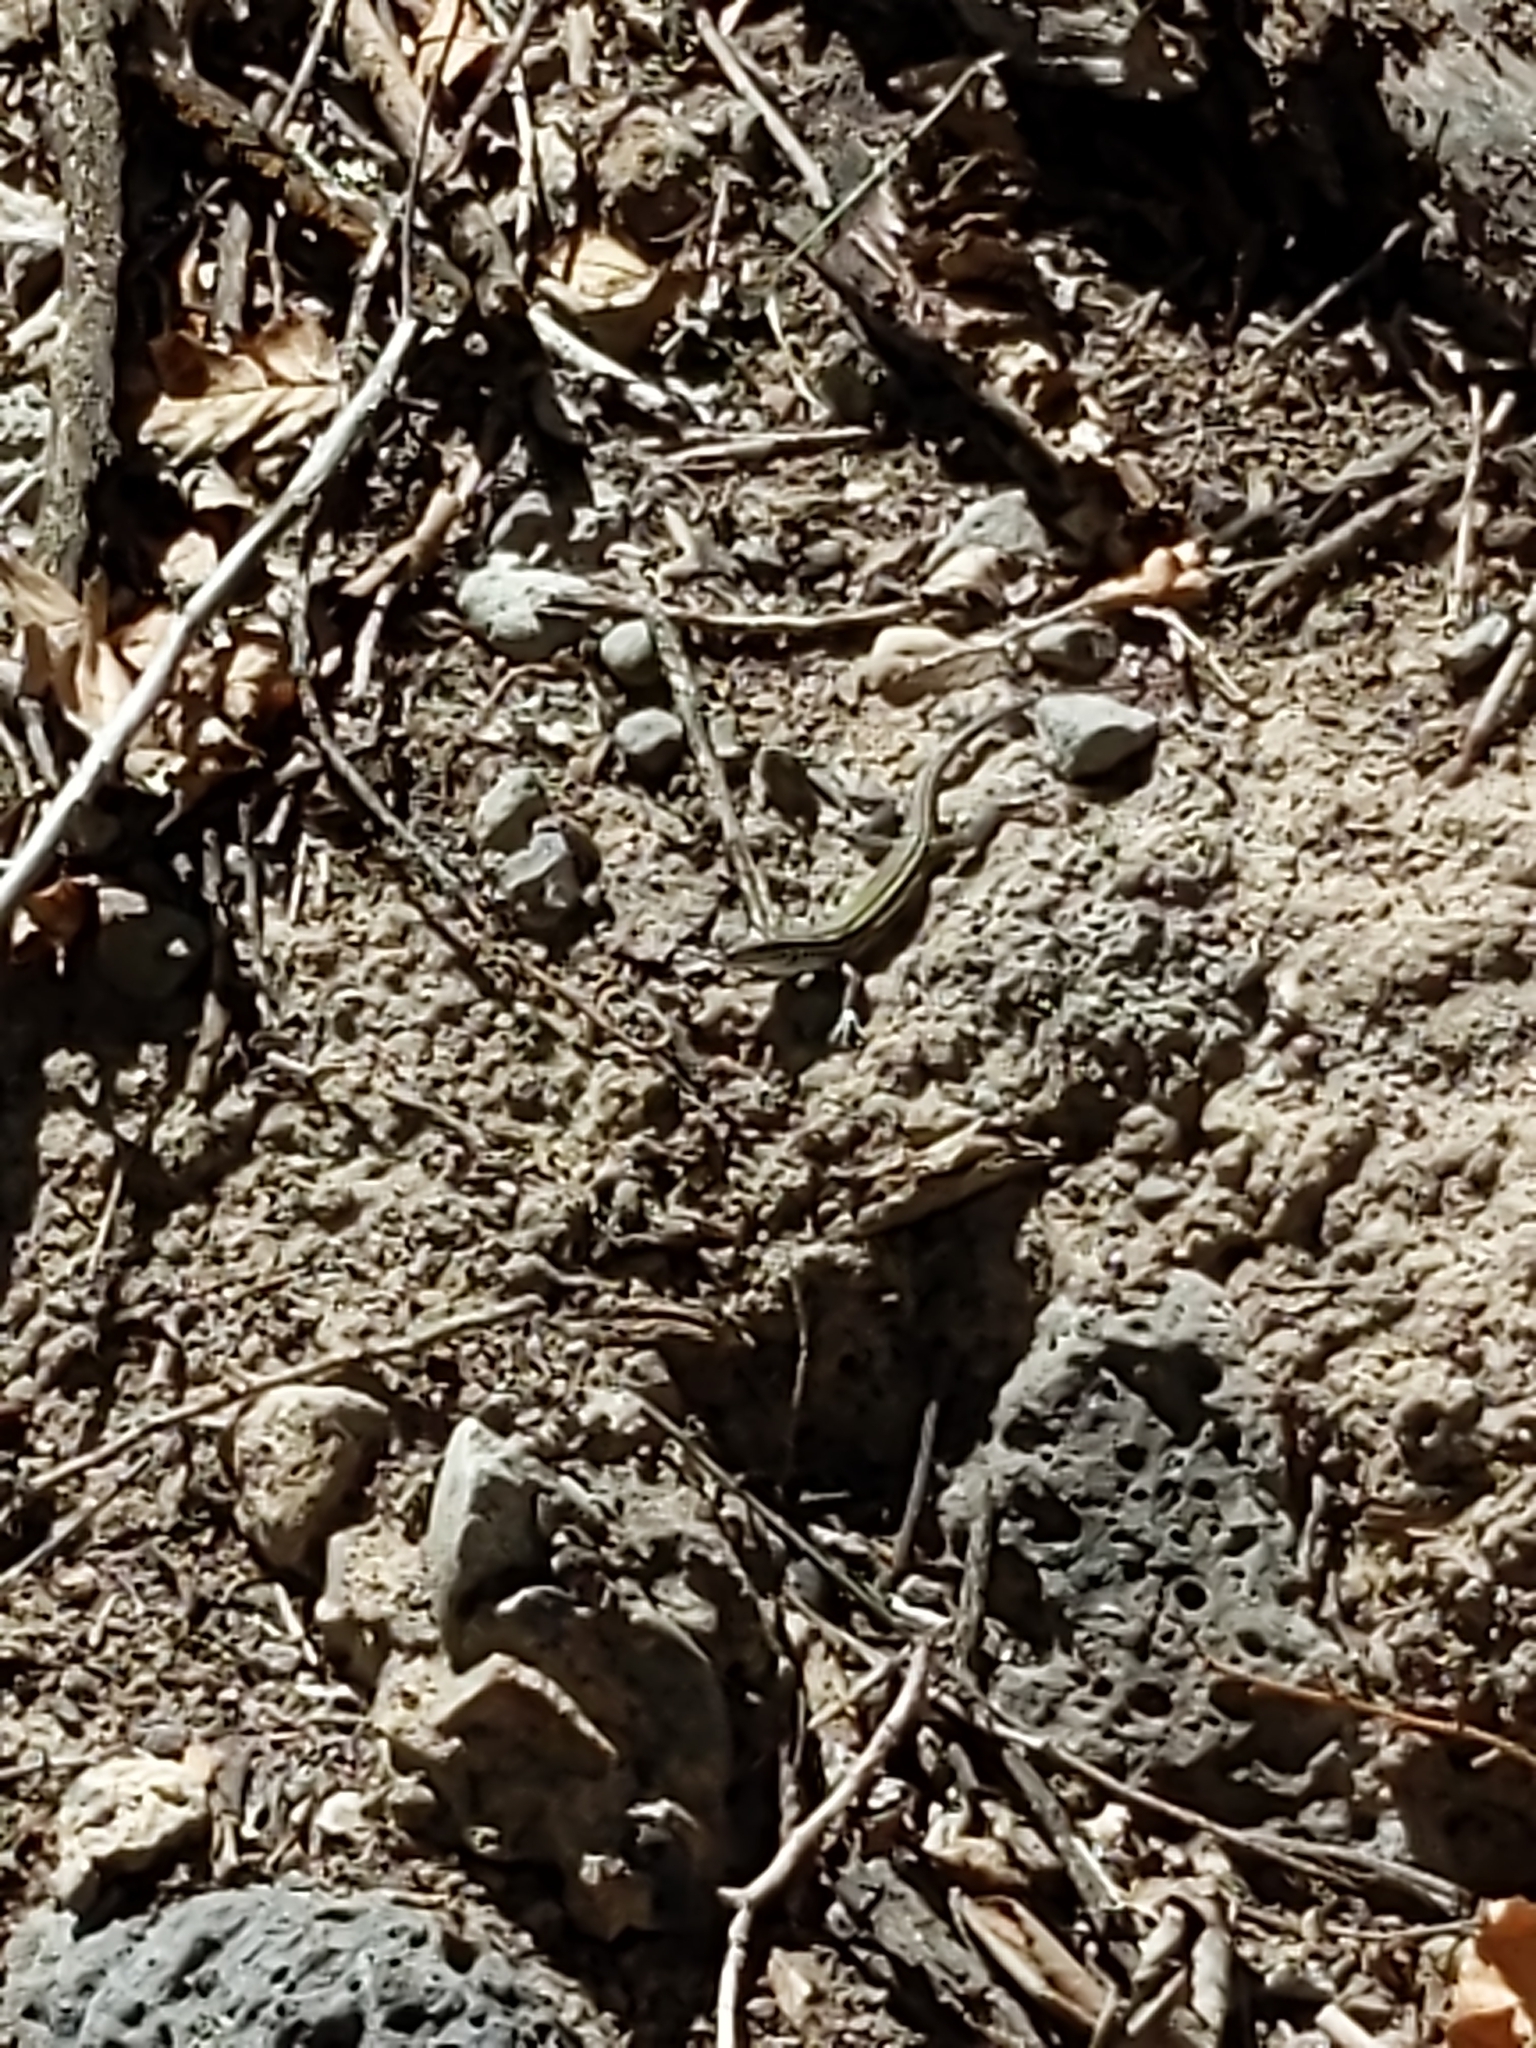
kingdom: Animalia
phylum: Chordata
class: Squamata
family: Teiidae
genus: Aspidoscelis
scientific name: Aspidoscelis velox
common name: Plateau striped whiptail
